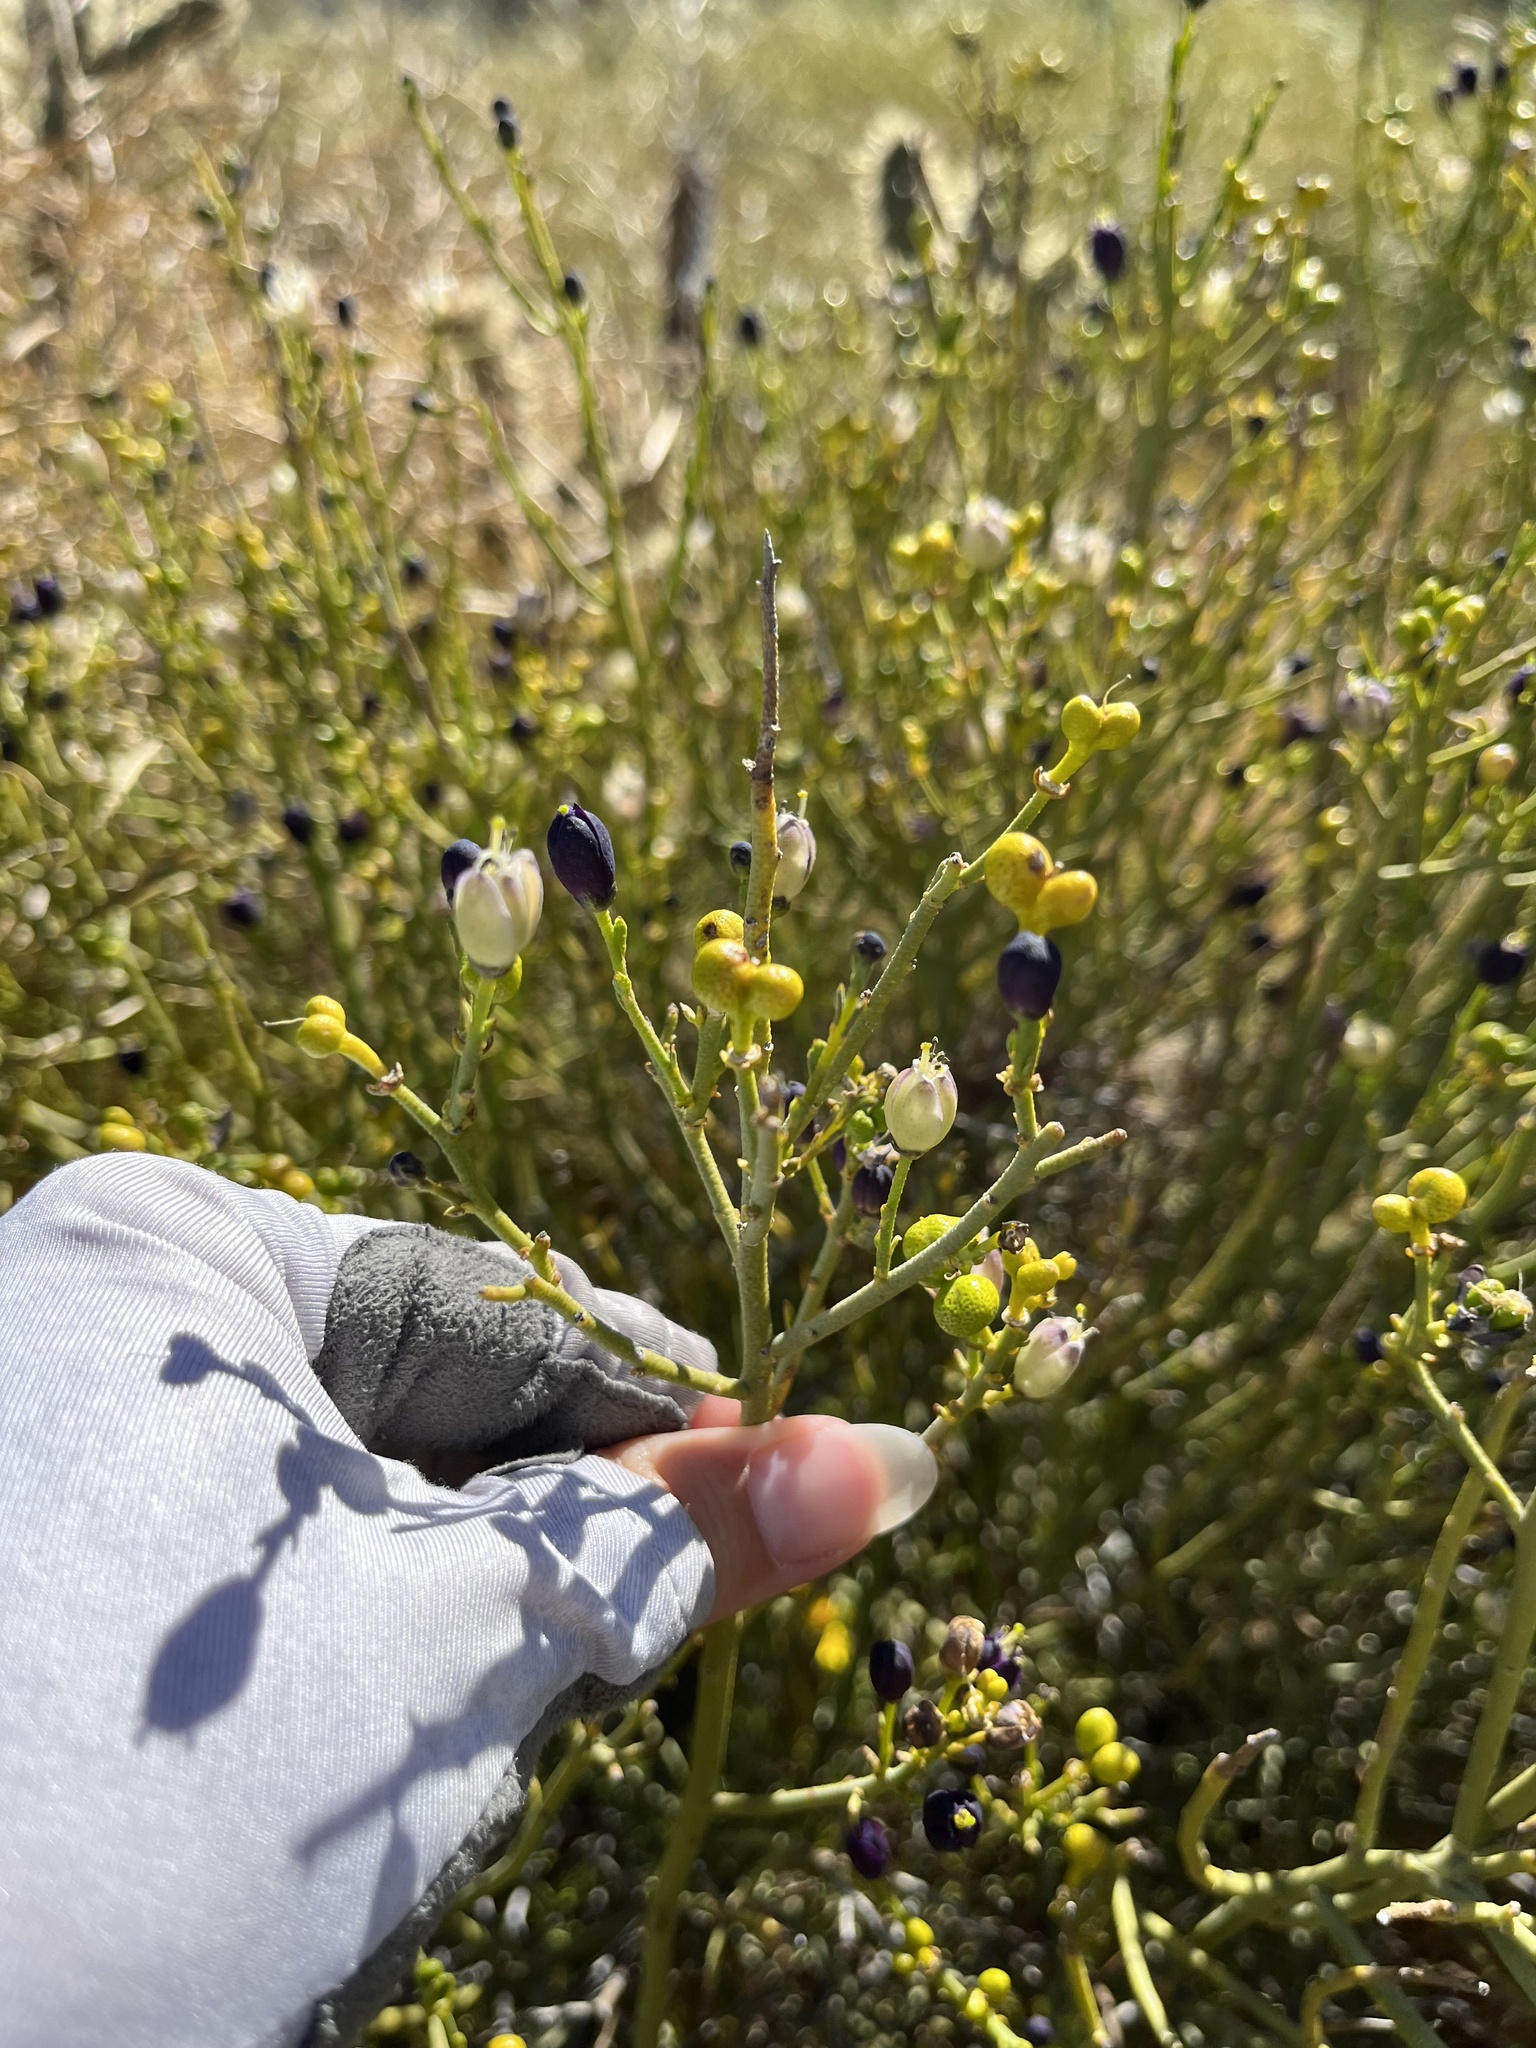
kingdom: Plantae
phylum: Tracheophyta
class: Magnoliopsida
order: Sapindales
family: Rutaceae
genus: Thamnosma
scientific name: Thamnosma montana
